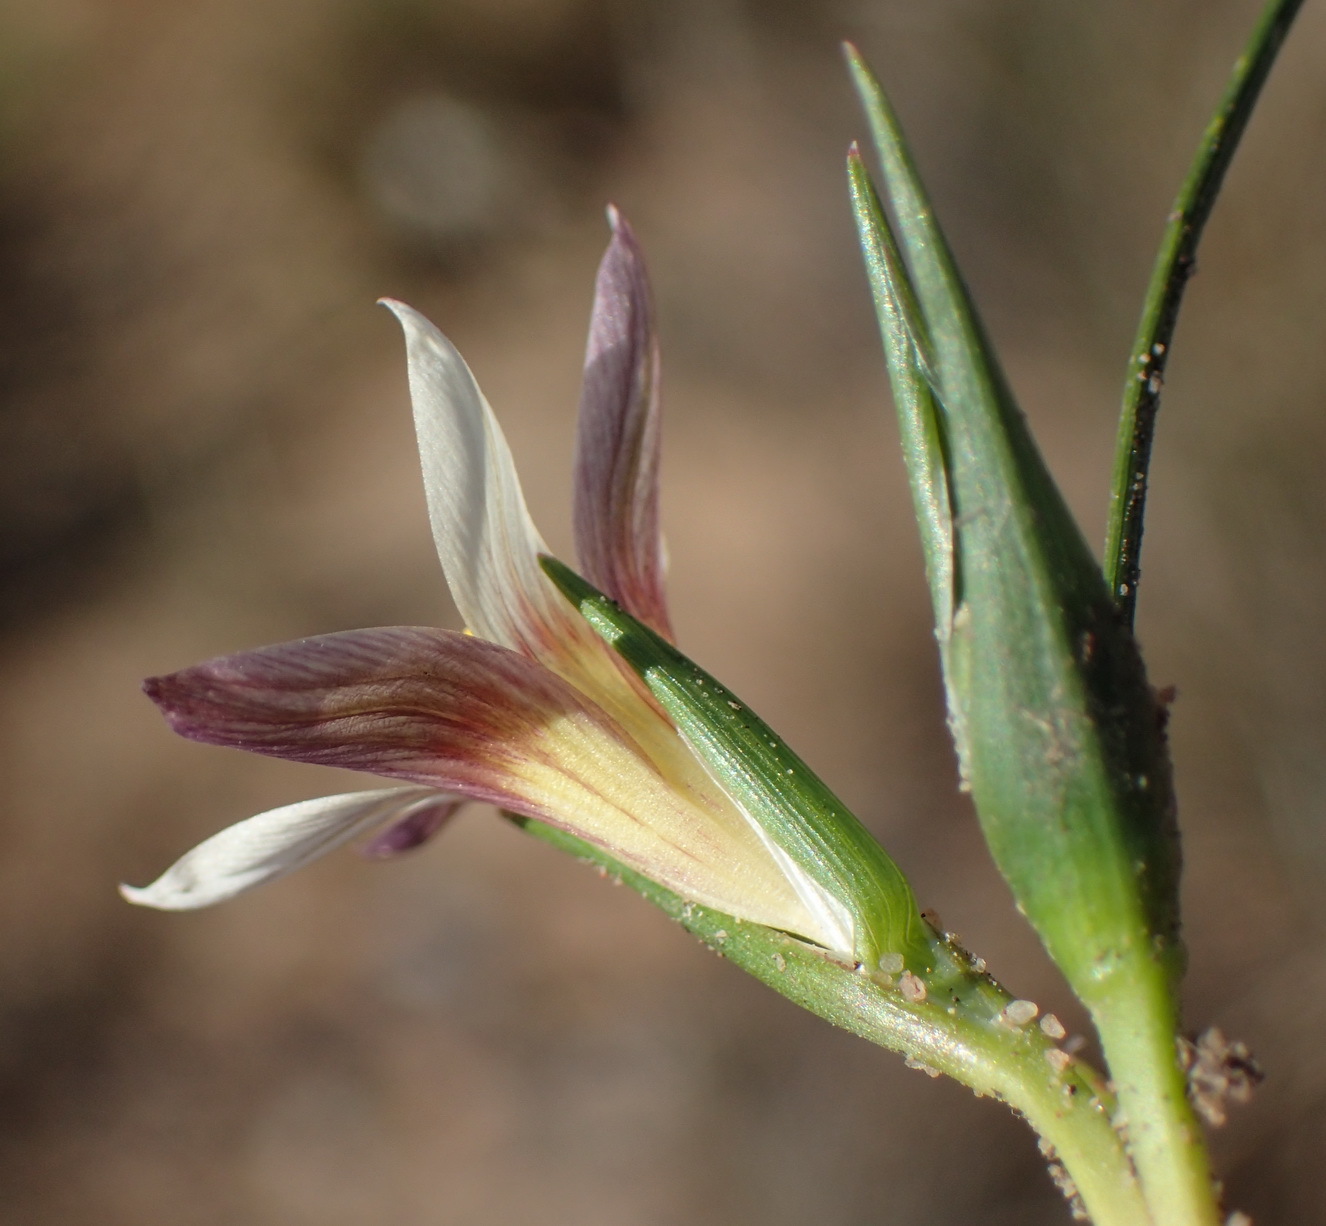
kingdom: Plantae
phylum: Tracheophyta
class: Liliopsida
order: Asparagales
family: Iridaceae
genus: Romulea
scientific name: Romulea setifolia
